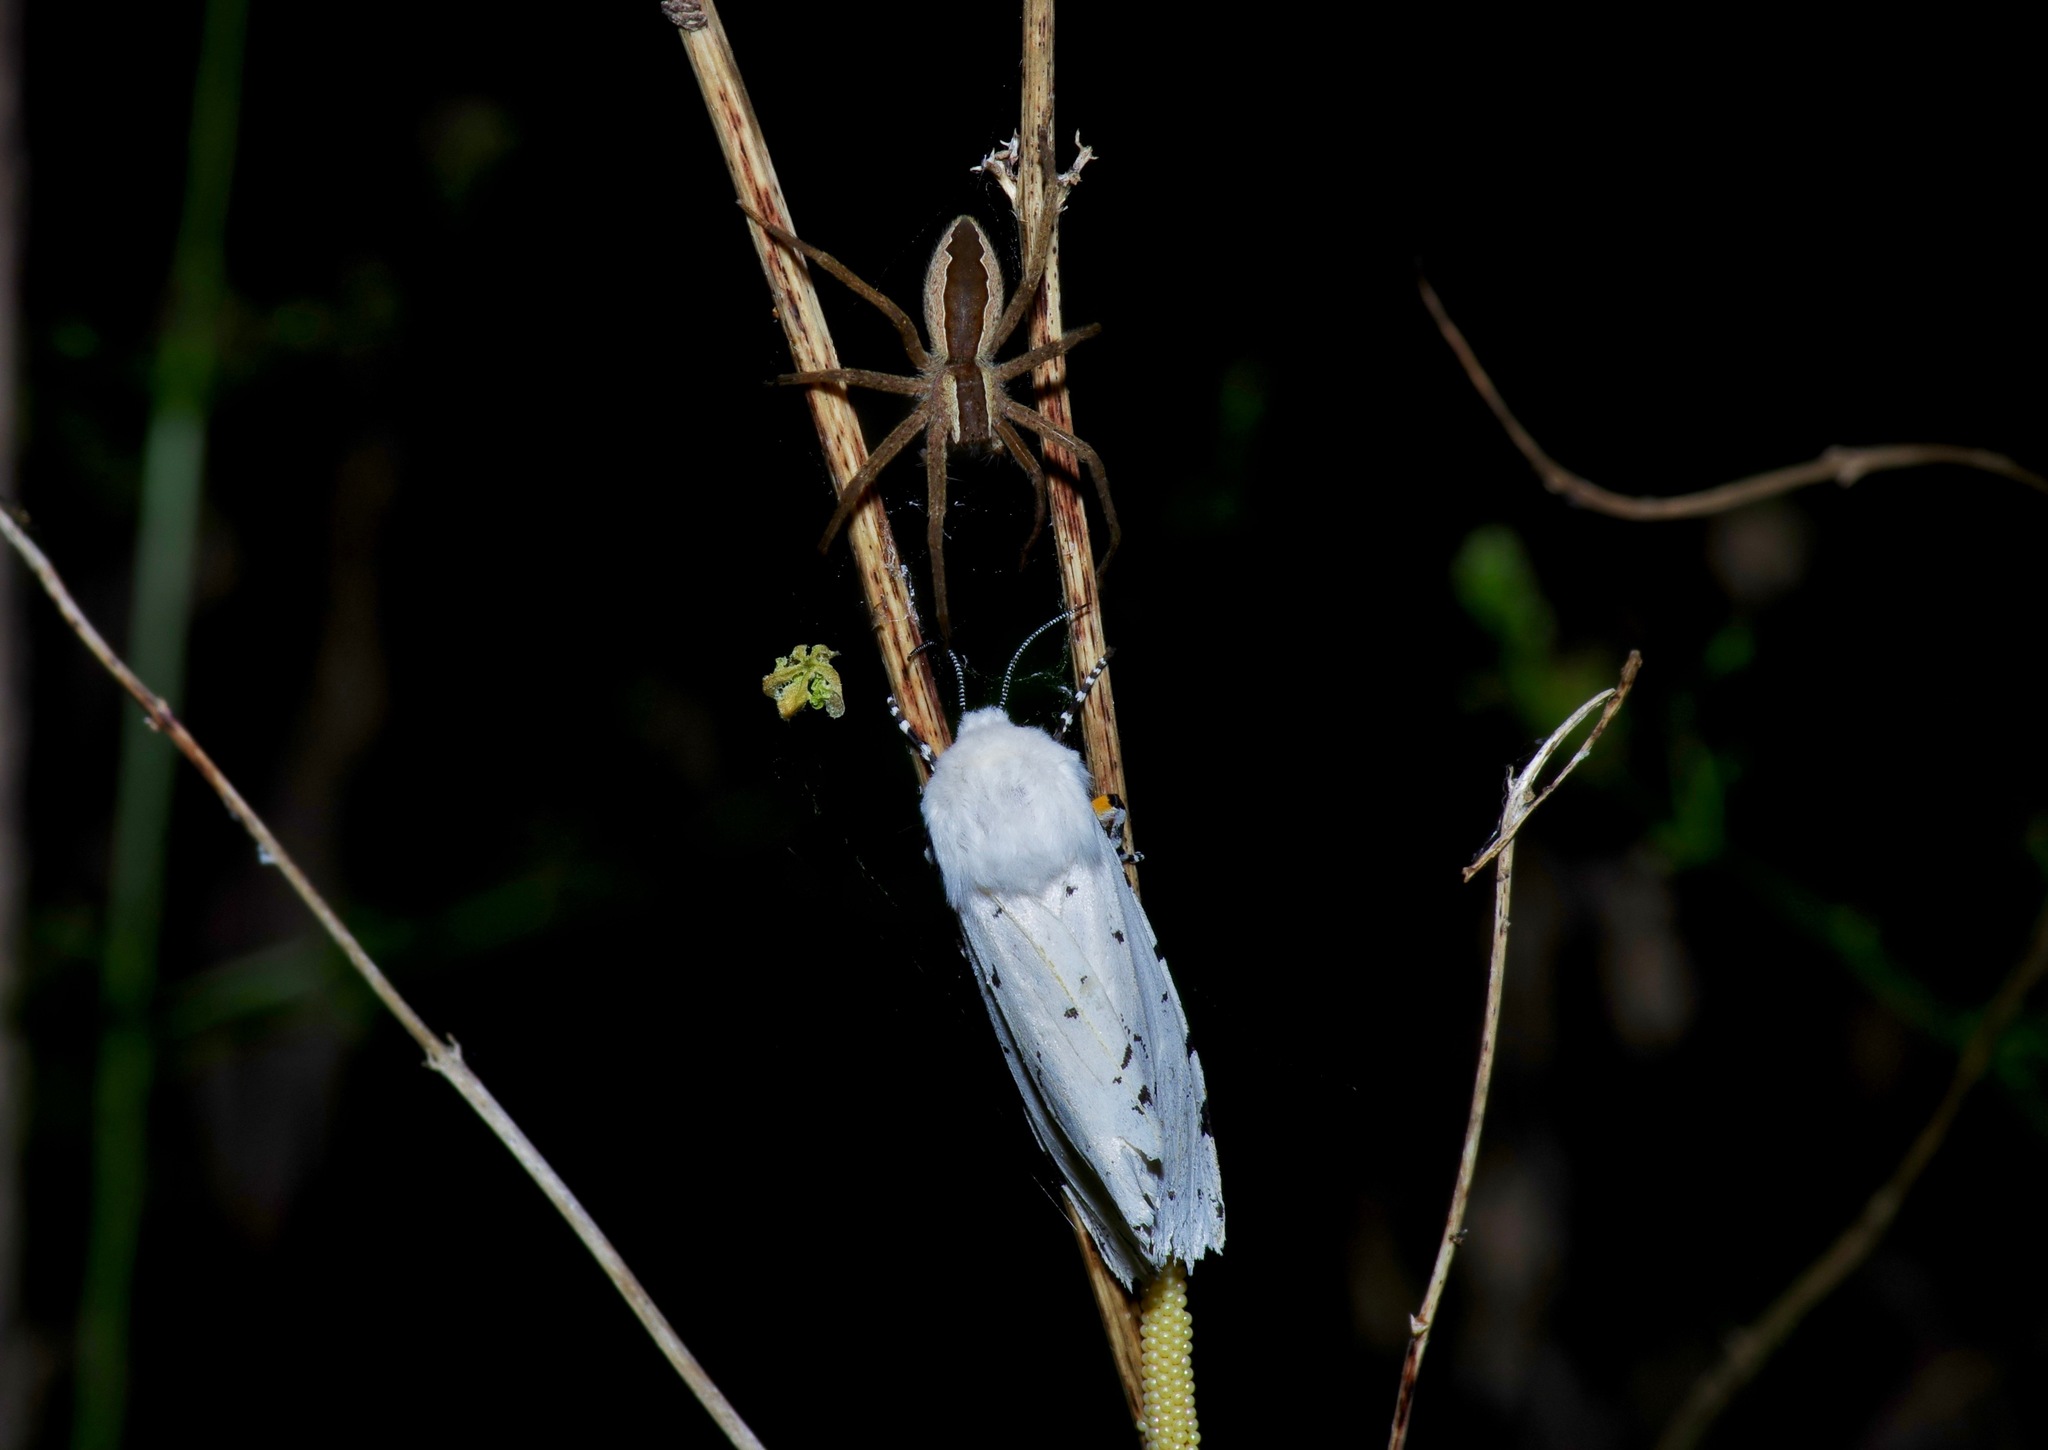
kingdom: Animalia
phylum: Arthropoda
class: Insecta
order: Lepidoptera
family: Erebidae
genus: Estigmene
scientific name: Estigmene acrea
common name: Salt marsh moth
